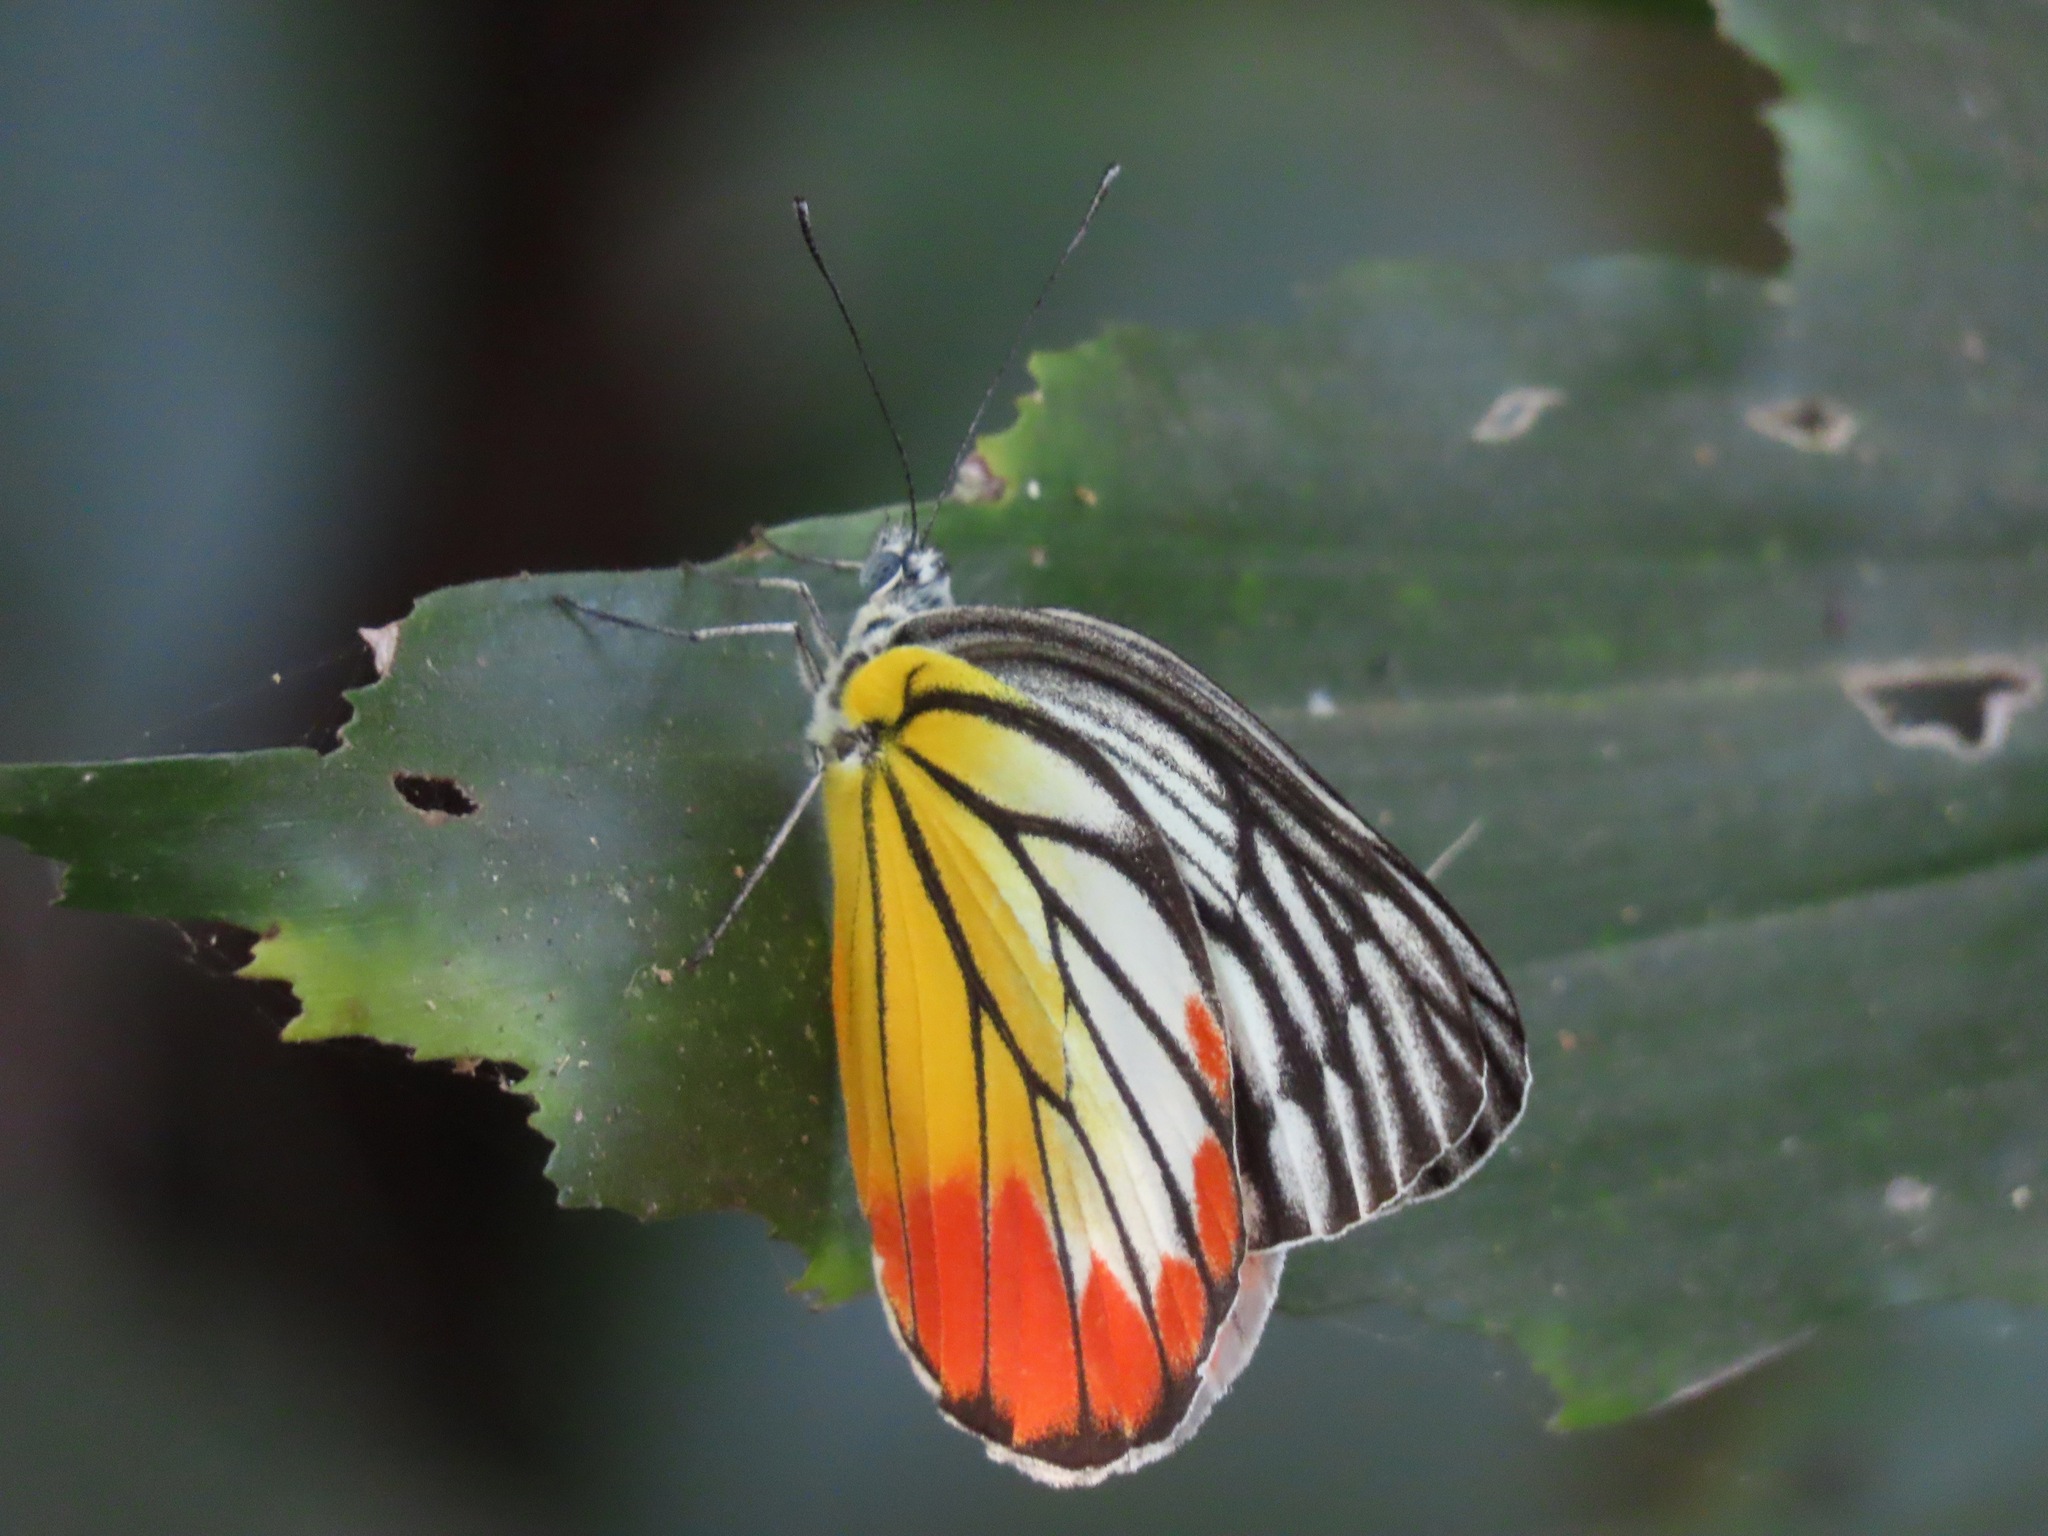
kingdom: Animalia
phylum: Arthropoda
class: Insecta
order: Lepidoptera
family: Pieridae
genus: Delias
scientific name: Delias hyparete
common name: Painted jezebel
